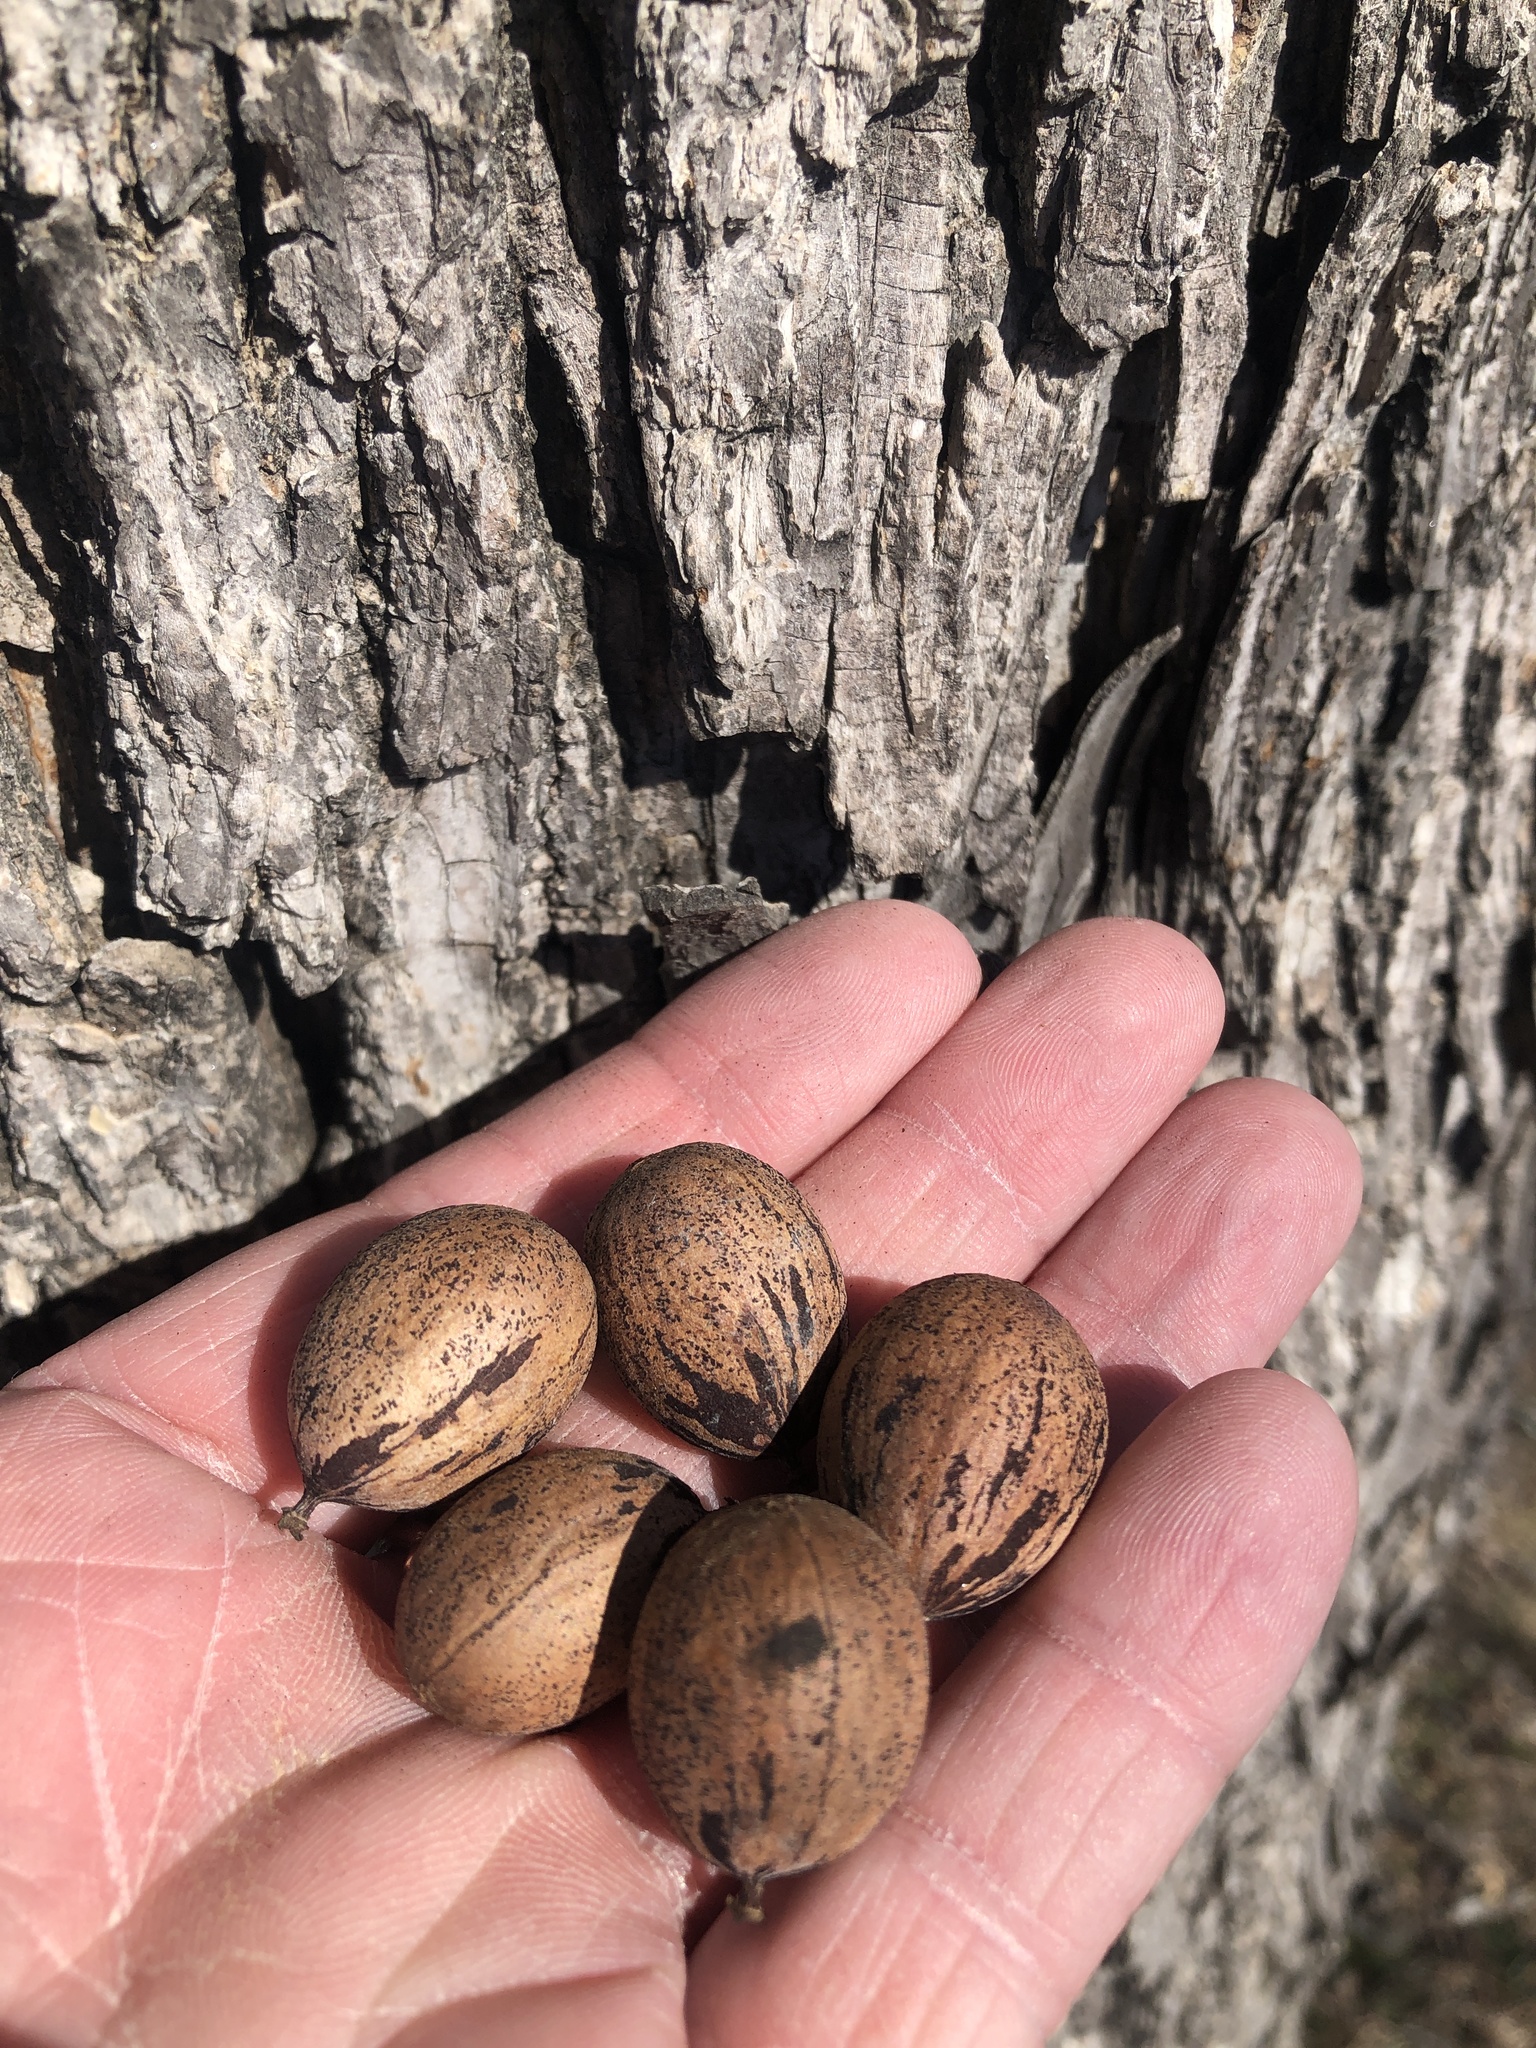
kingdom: Plantae
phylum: Tracheophyta
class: Magnoliopsida
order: Fagales
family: Juglandaceae
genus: Carya
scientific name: Carya illinoinensis
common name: Pecan
